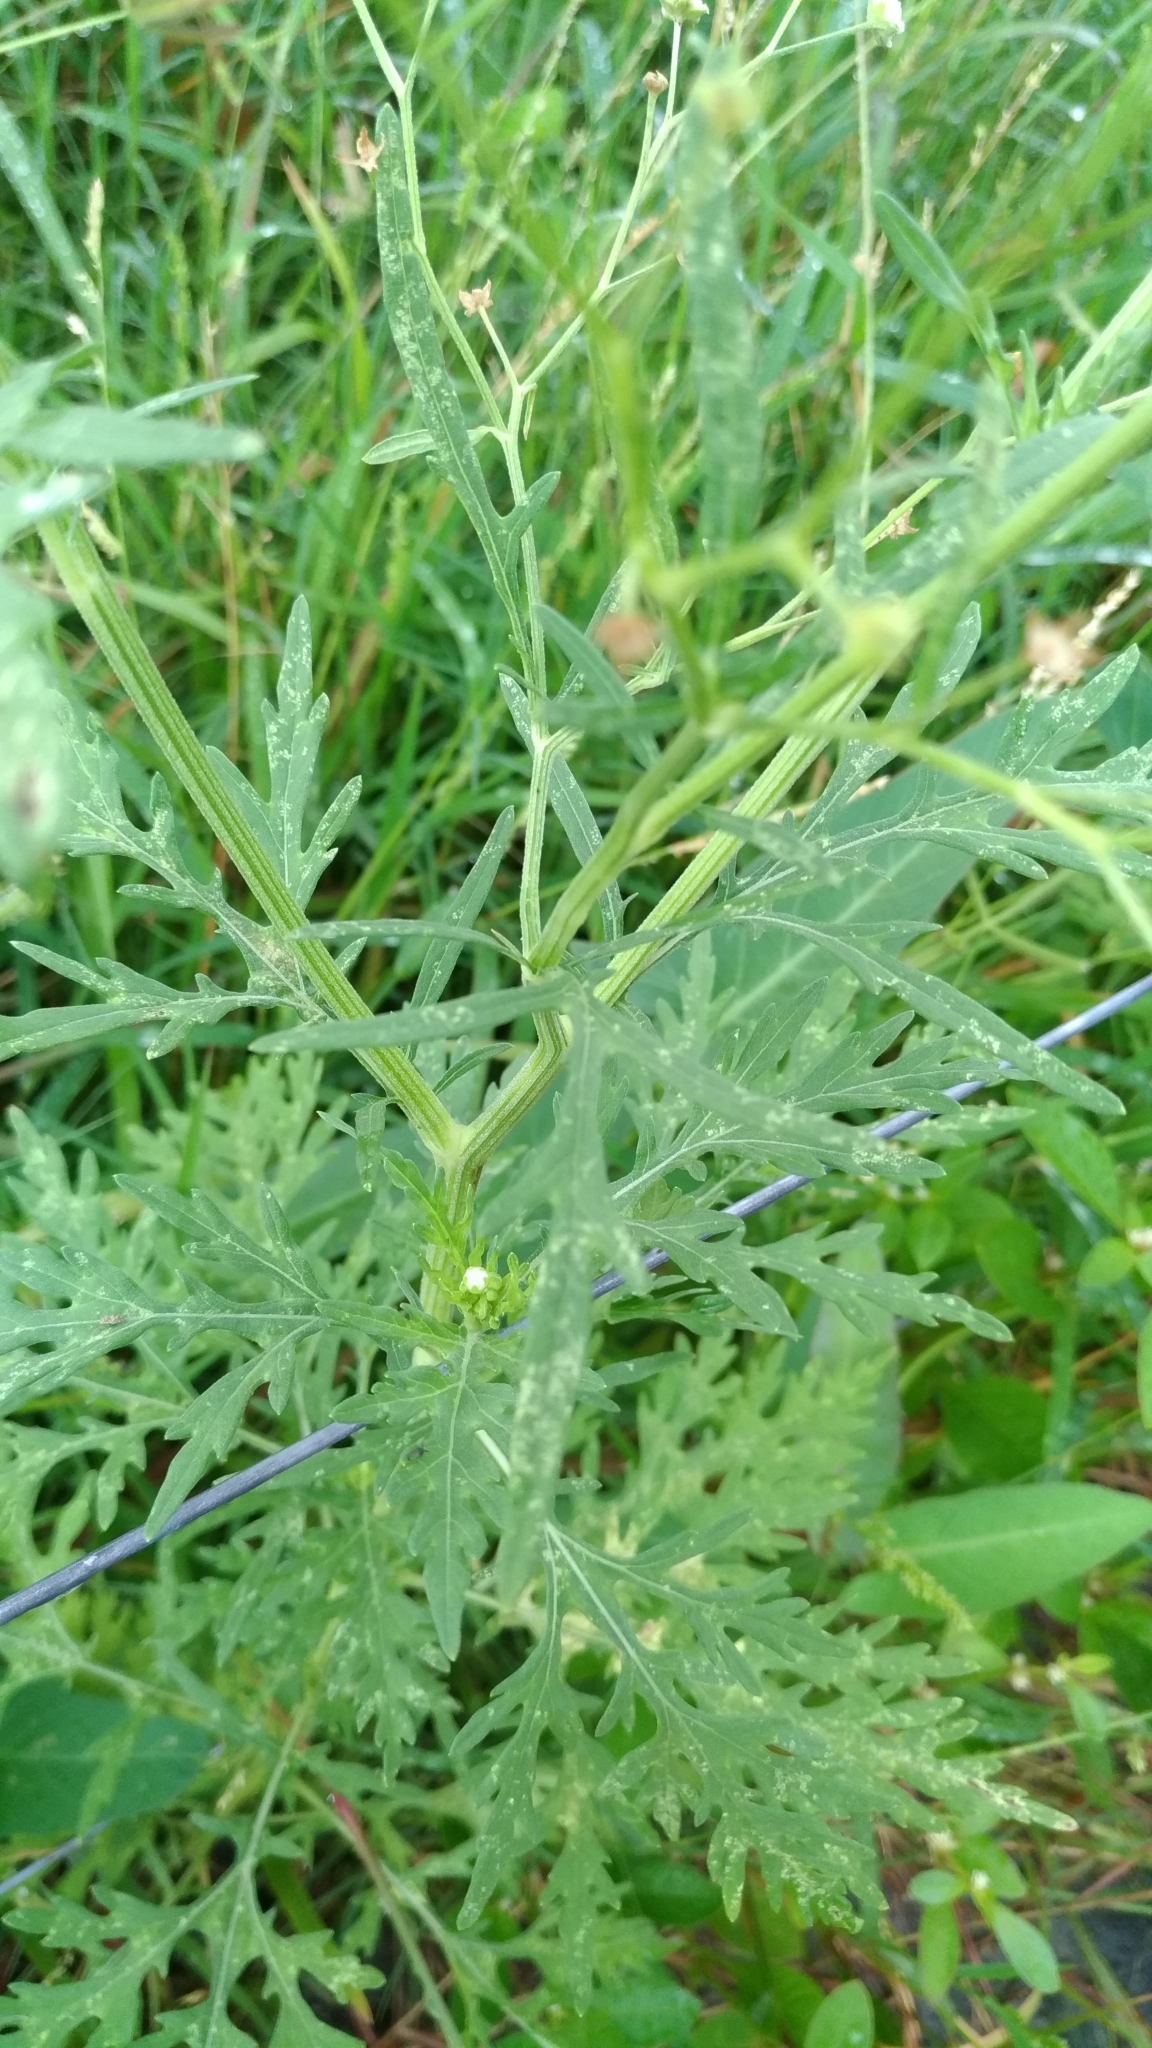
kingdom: Plantae
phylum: Tracheophyta
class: Magnoliopsida
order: Asterales
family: Asteraceae
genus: Parthenium
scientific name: Parthenium hysterophorus
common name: Santa maria feverfew
